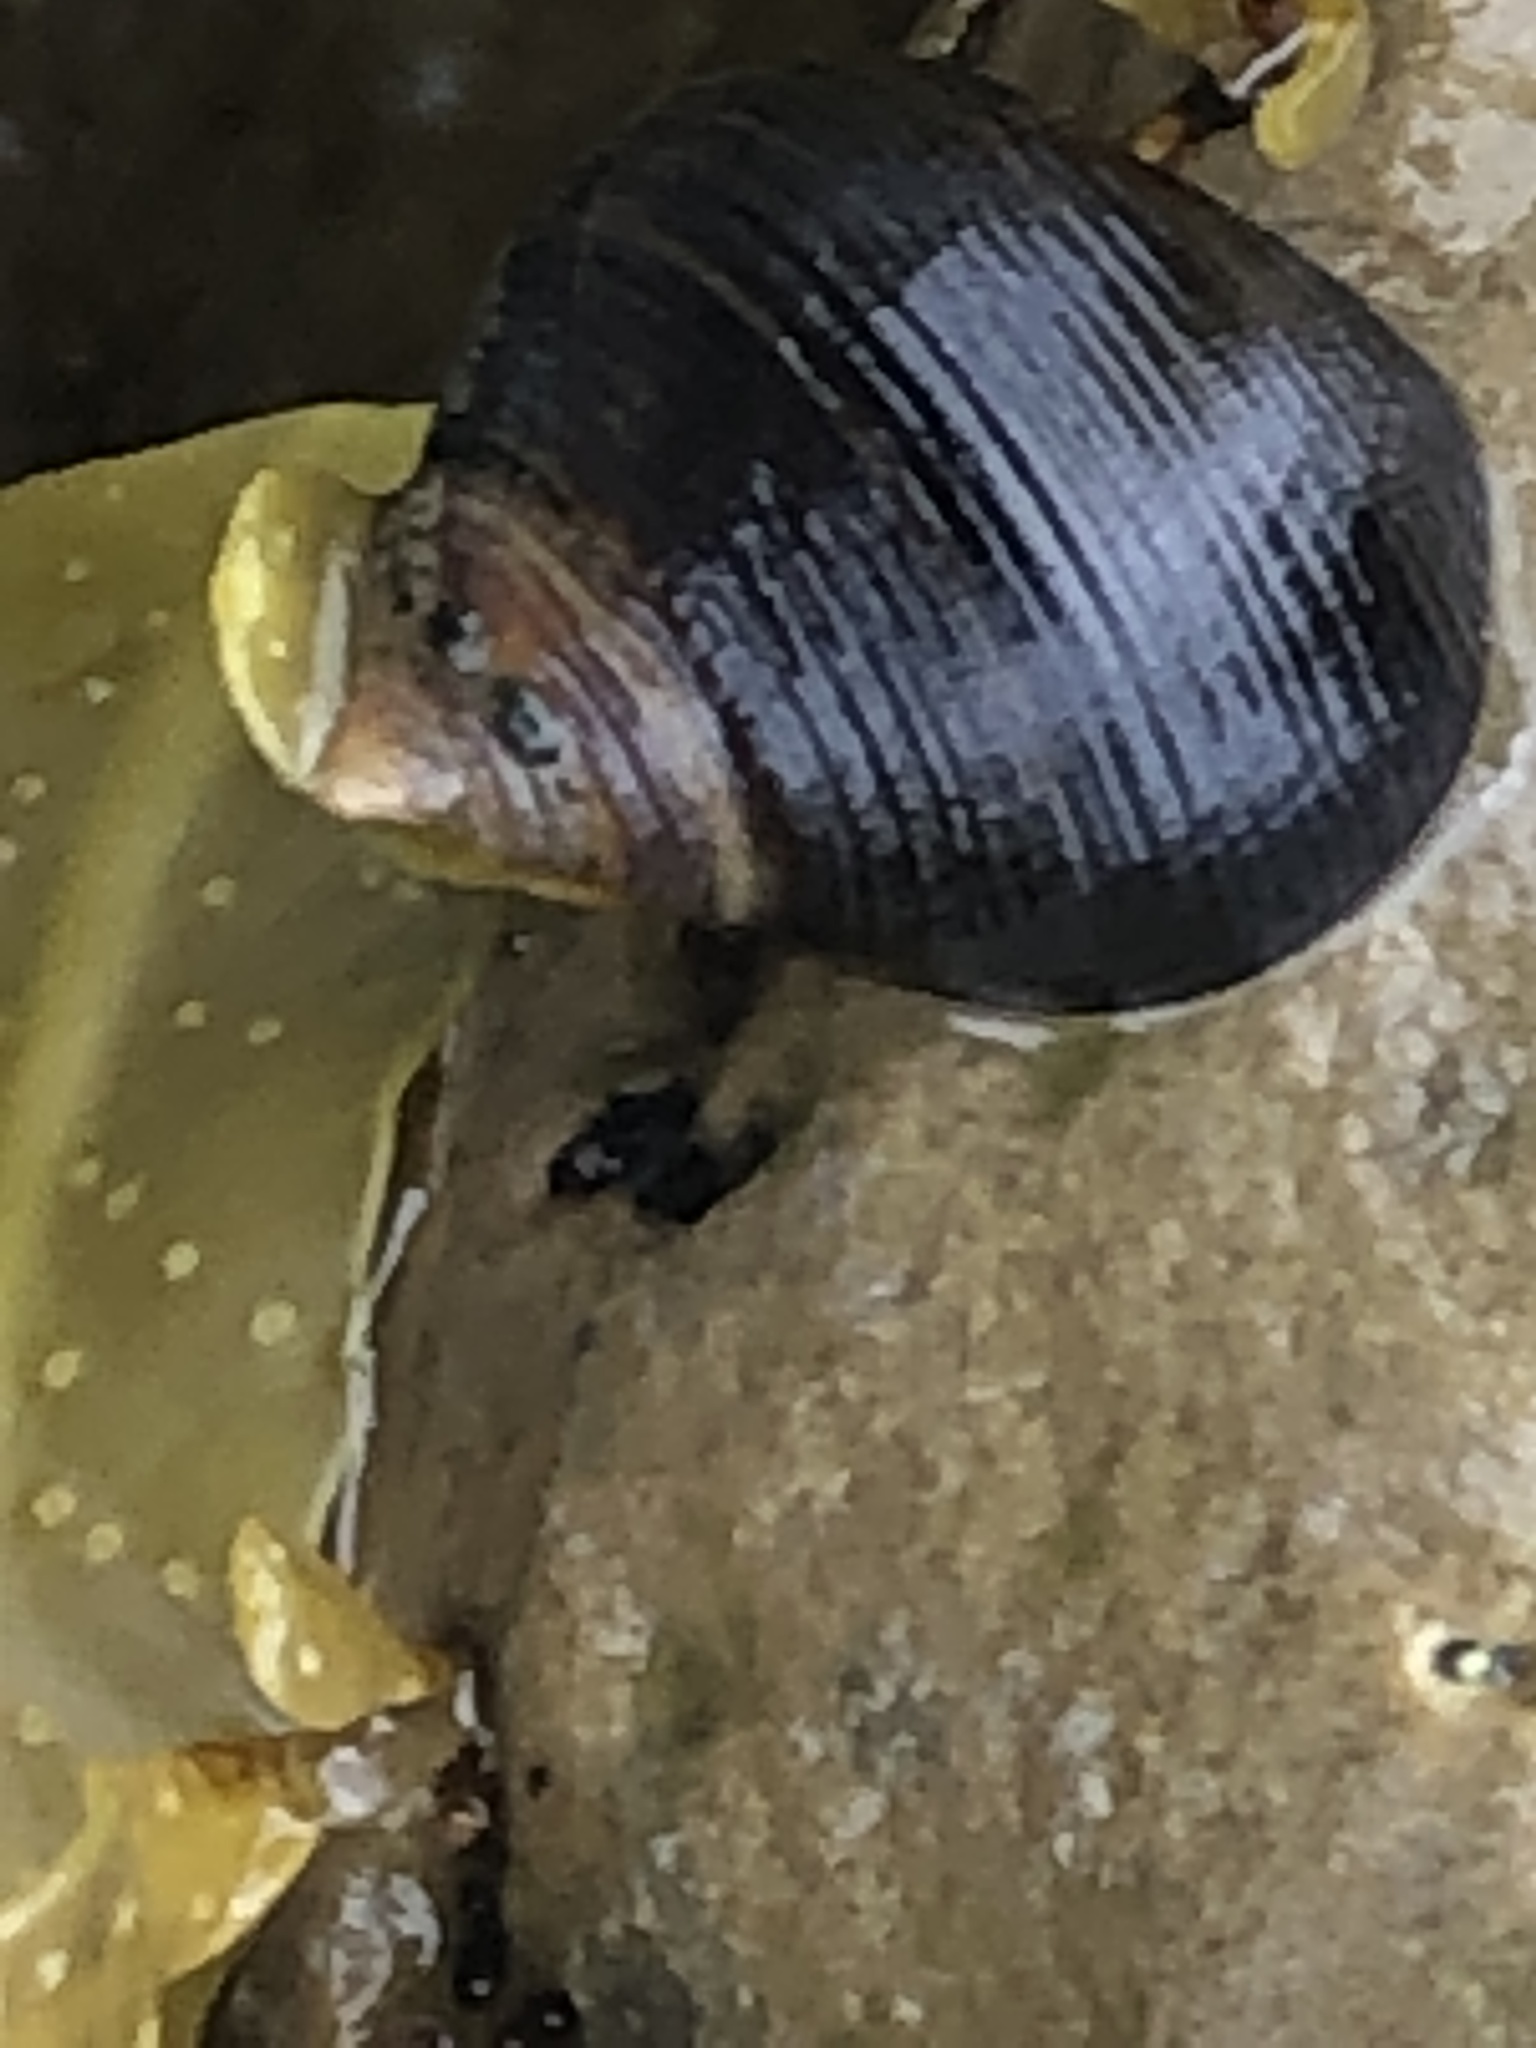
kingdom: Animalia
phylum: Mollusca
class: Gastropoda
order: Littorinimorpha
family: Littorinidae
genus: Littorina
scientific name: Littorina littorea
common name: Common periwinkle
